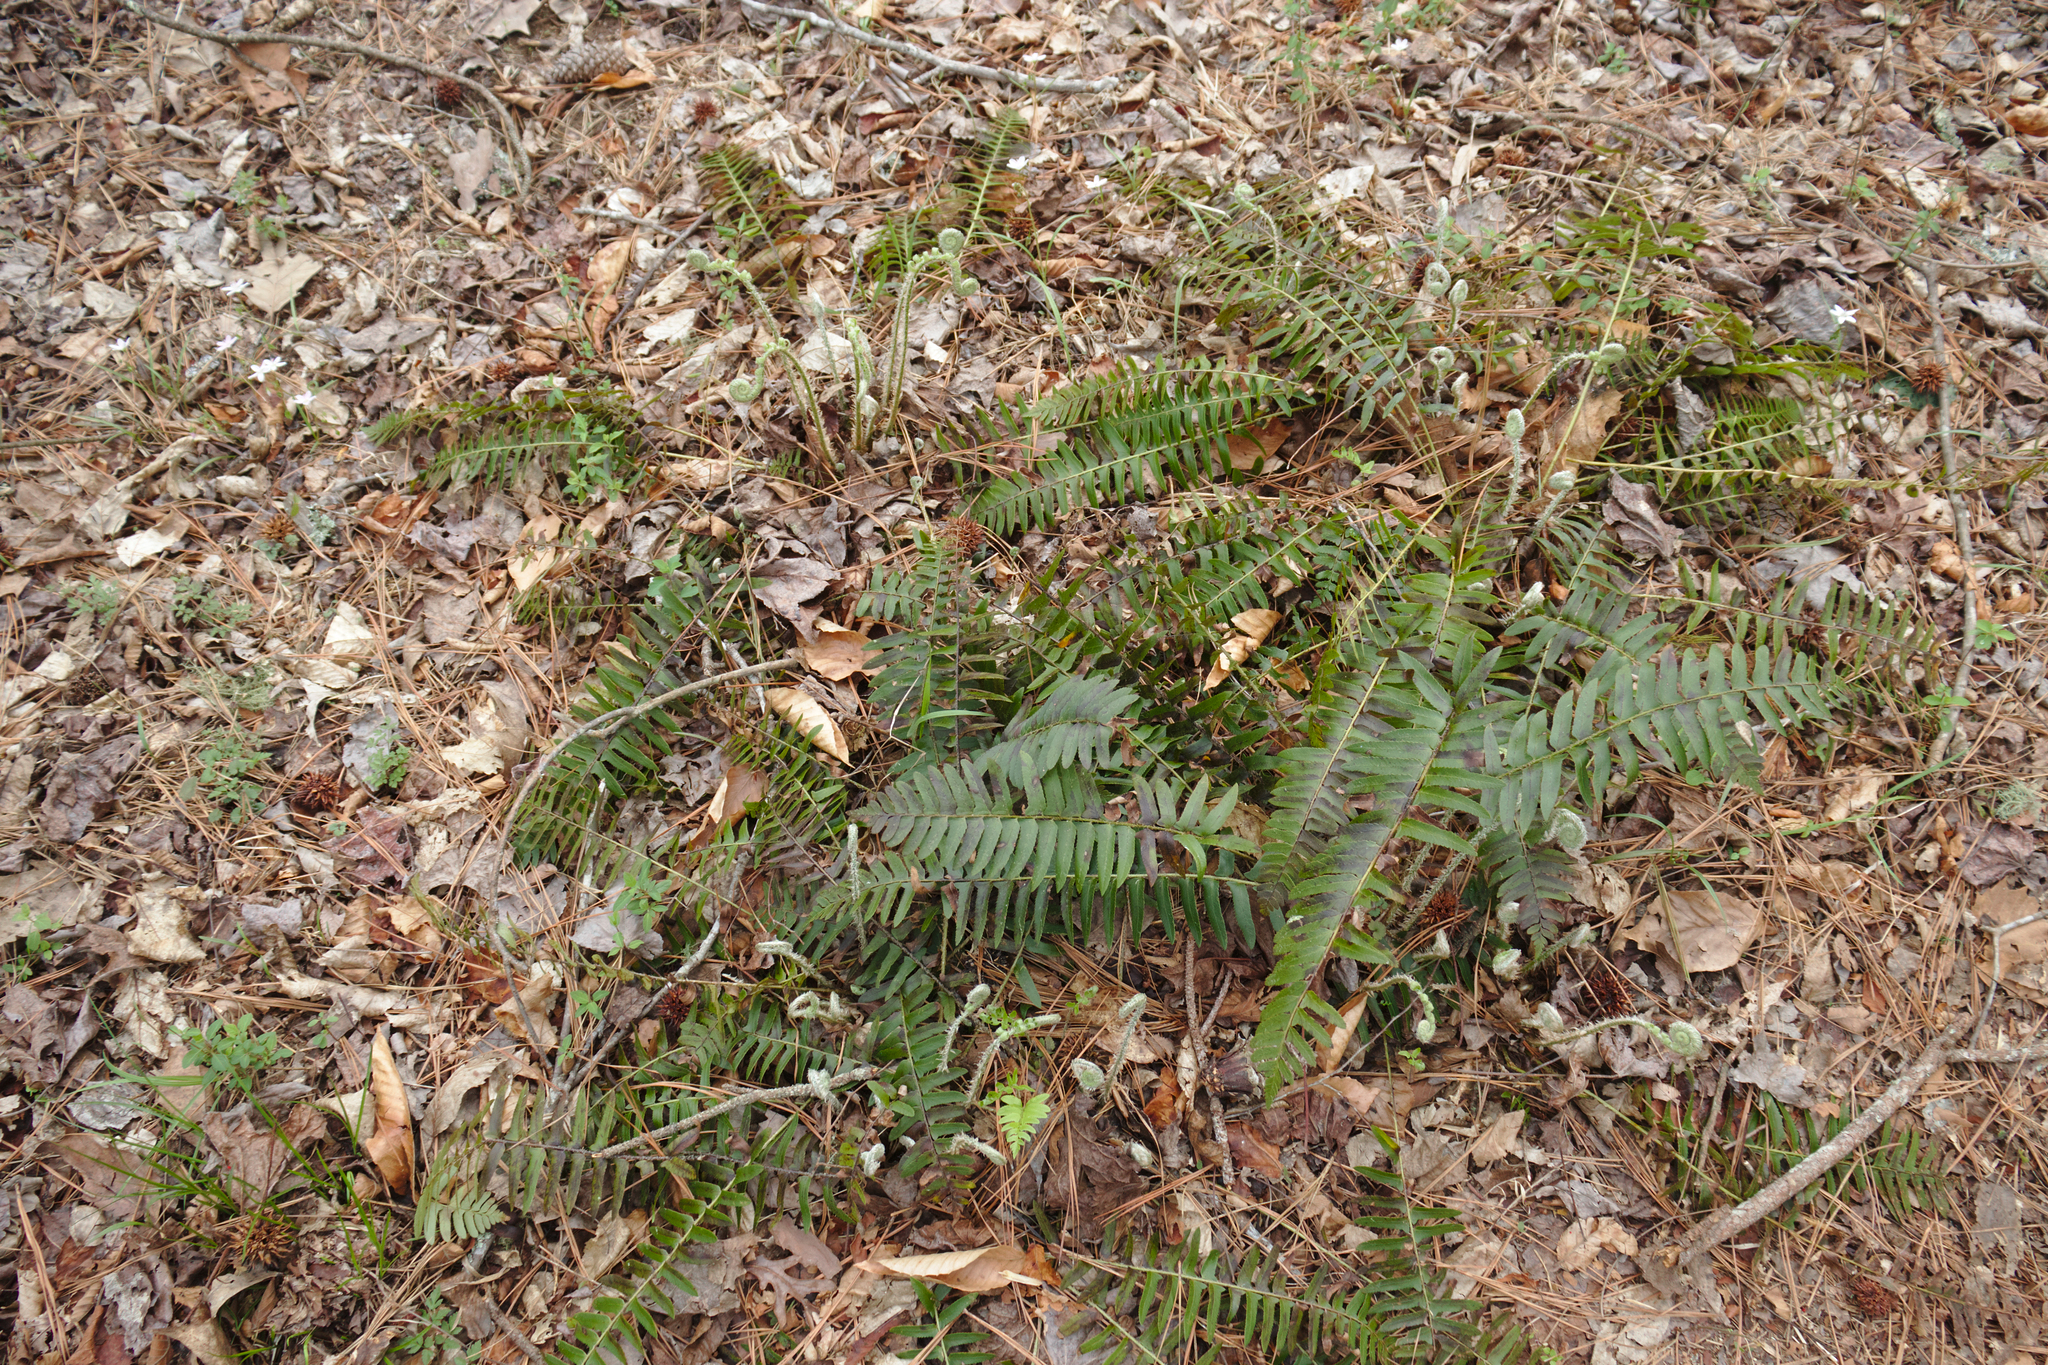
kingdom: Plantae
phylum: Tracheophyta
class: Polypodiopsida
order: Polypodiales
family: Dryopteridaceae
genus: Polystichum
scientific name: Polystichum acrostichoides
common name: Christmas fern
